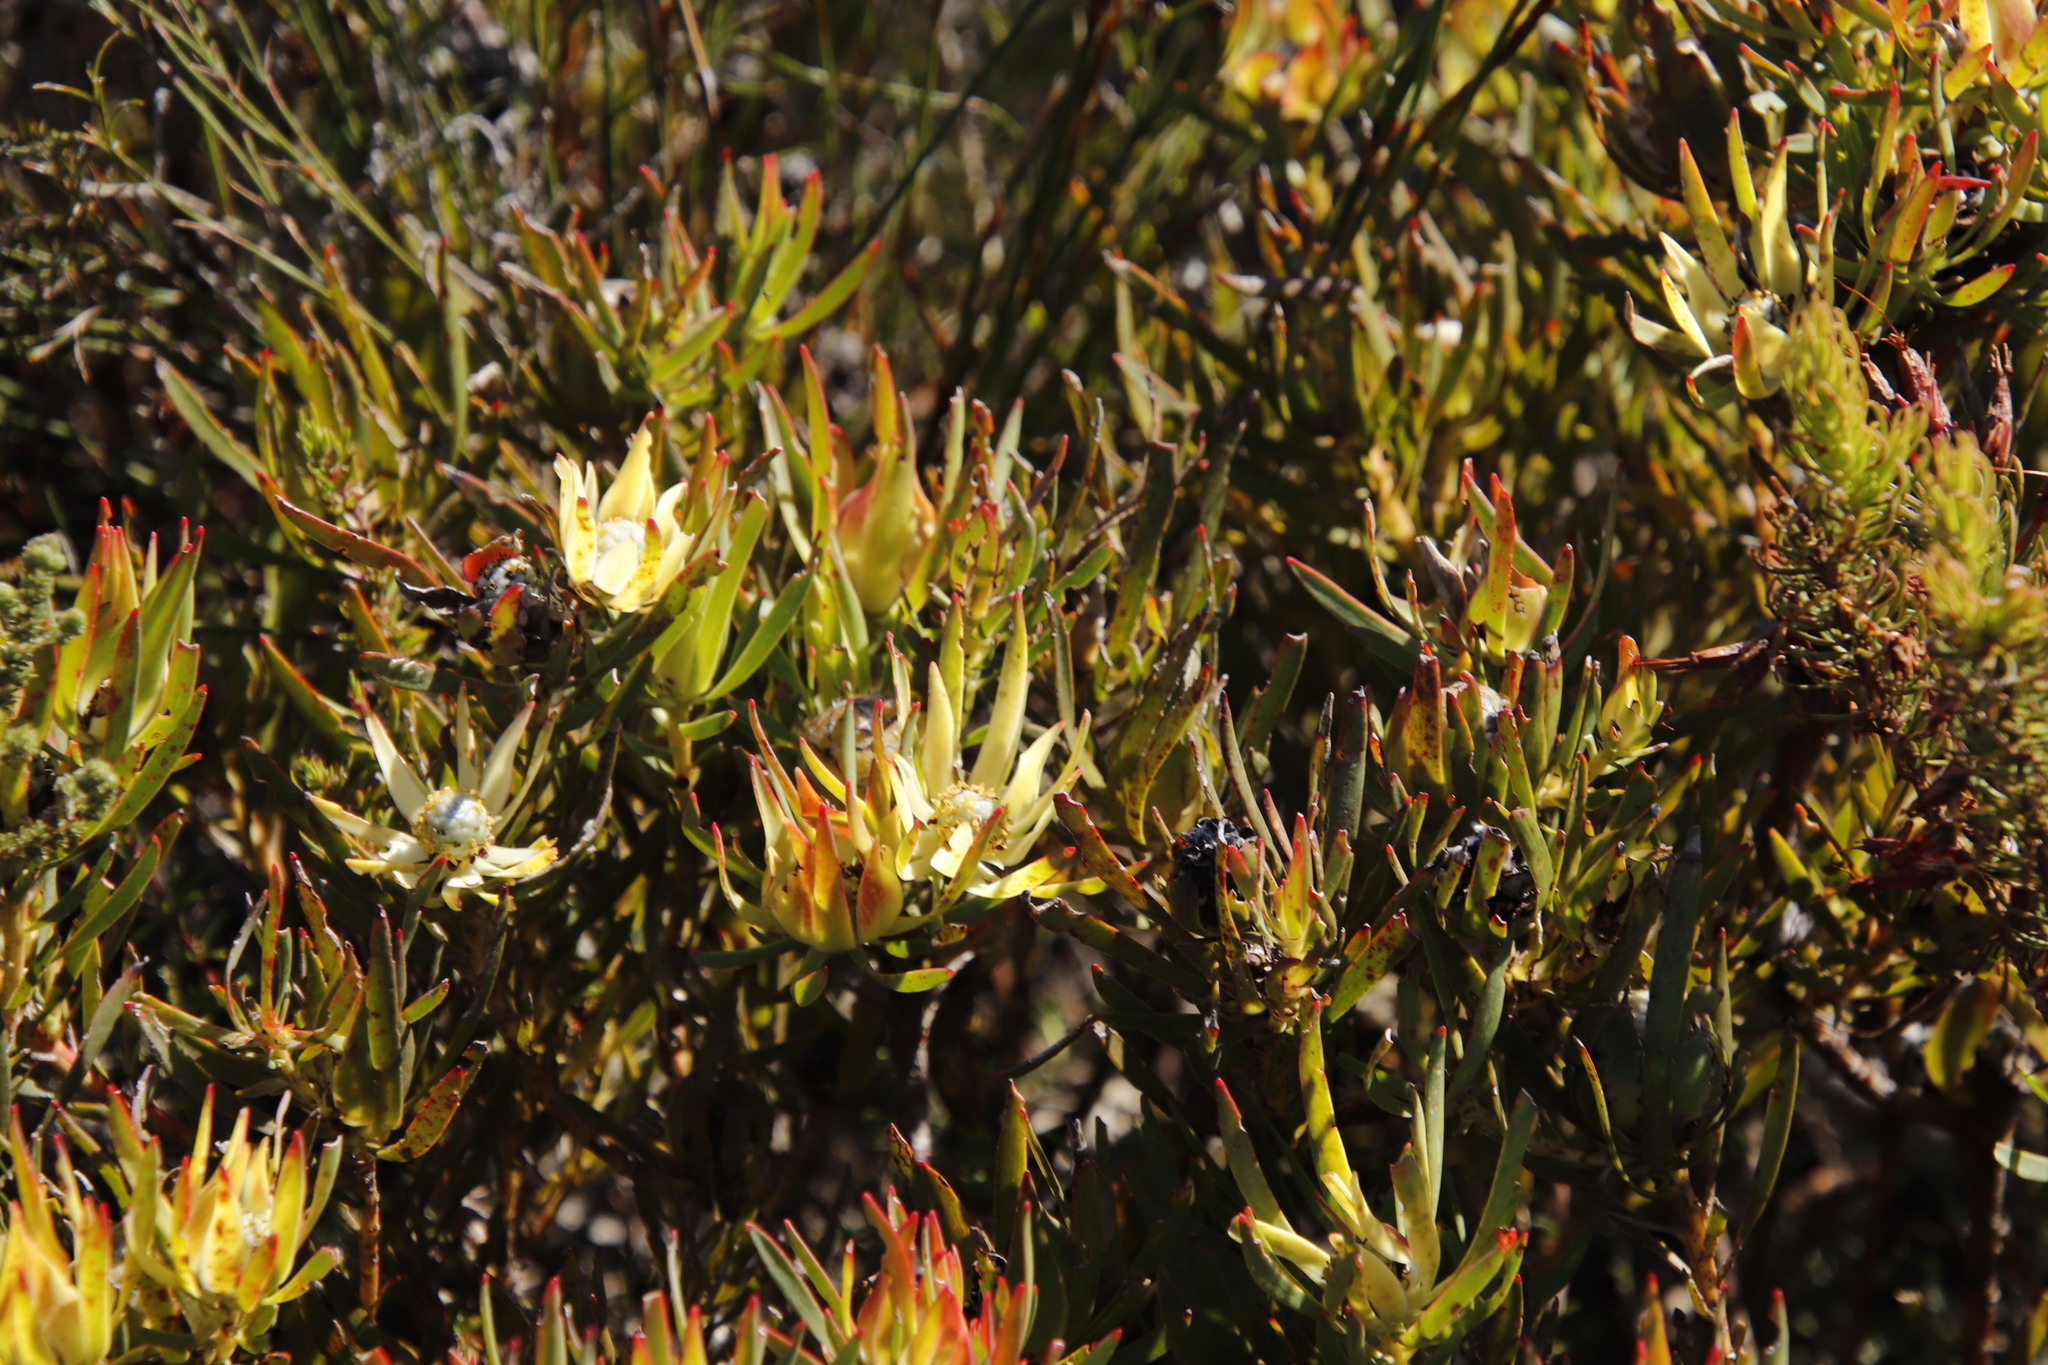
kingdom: Plantae
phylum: Tracheophyta
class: Magnoliopsida
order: Proteales
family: Proteaceae
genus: Leucadendron
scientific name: Leucadendron salignum
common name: Common sunshine conebush
